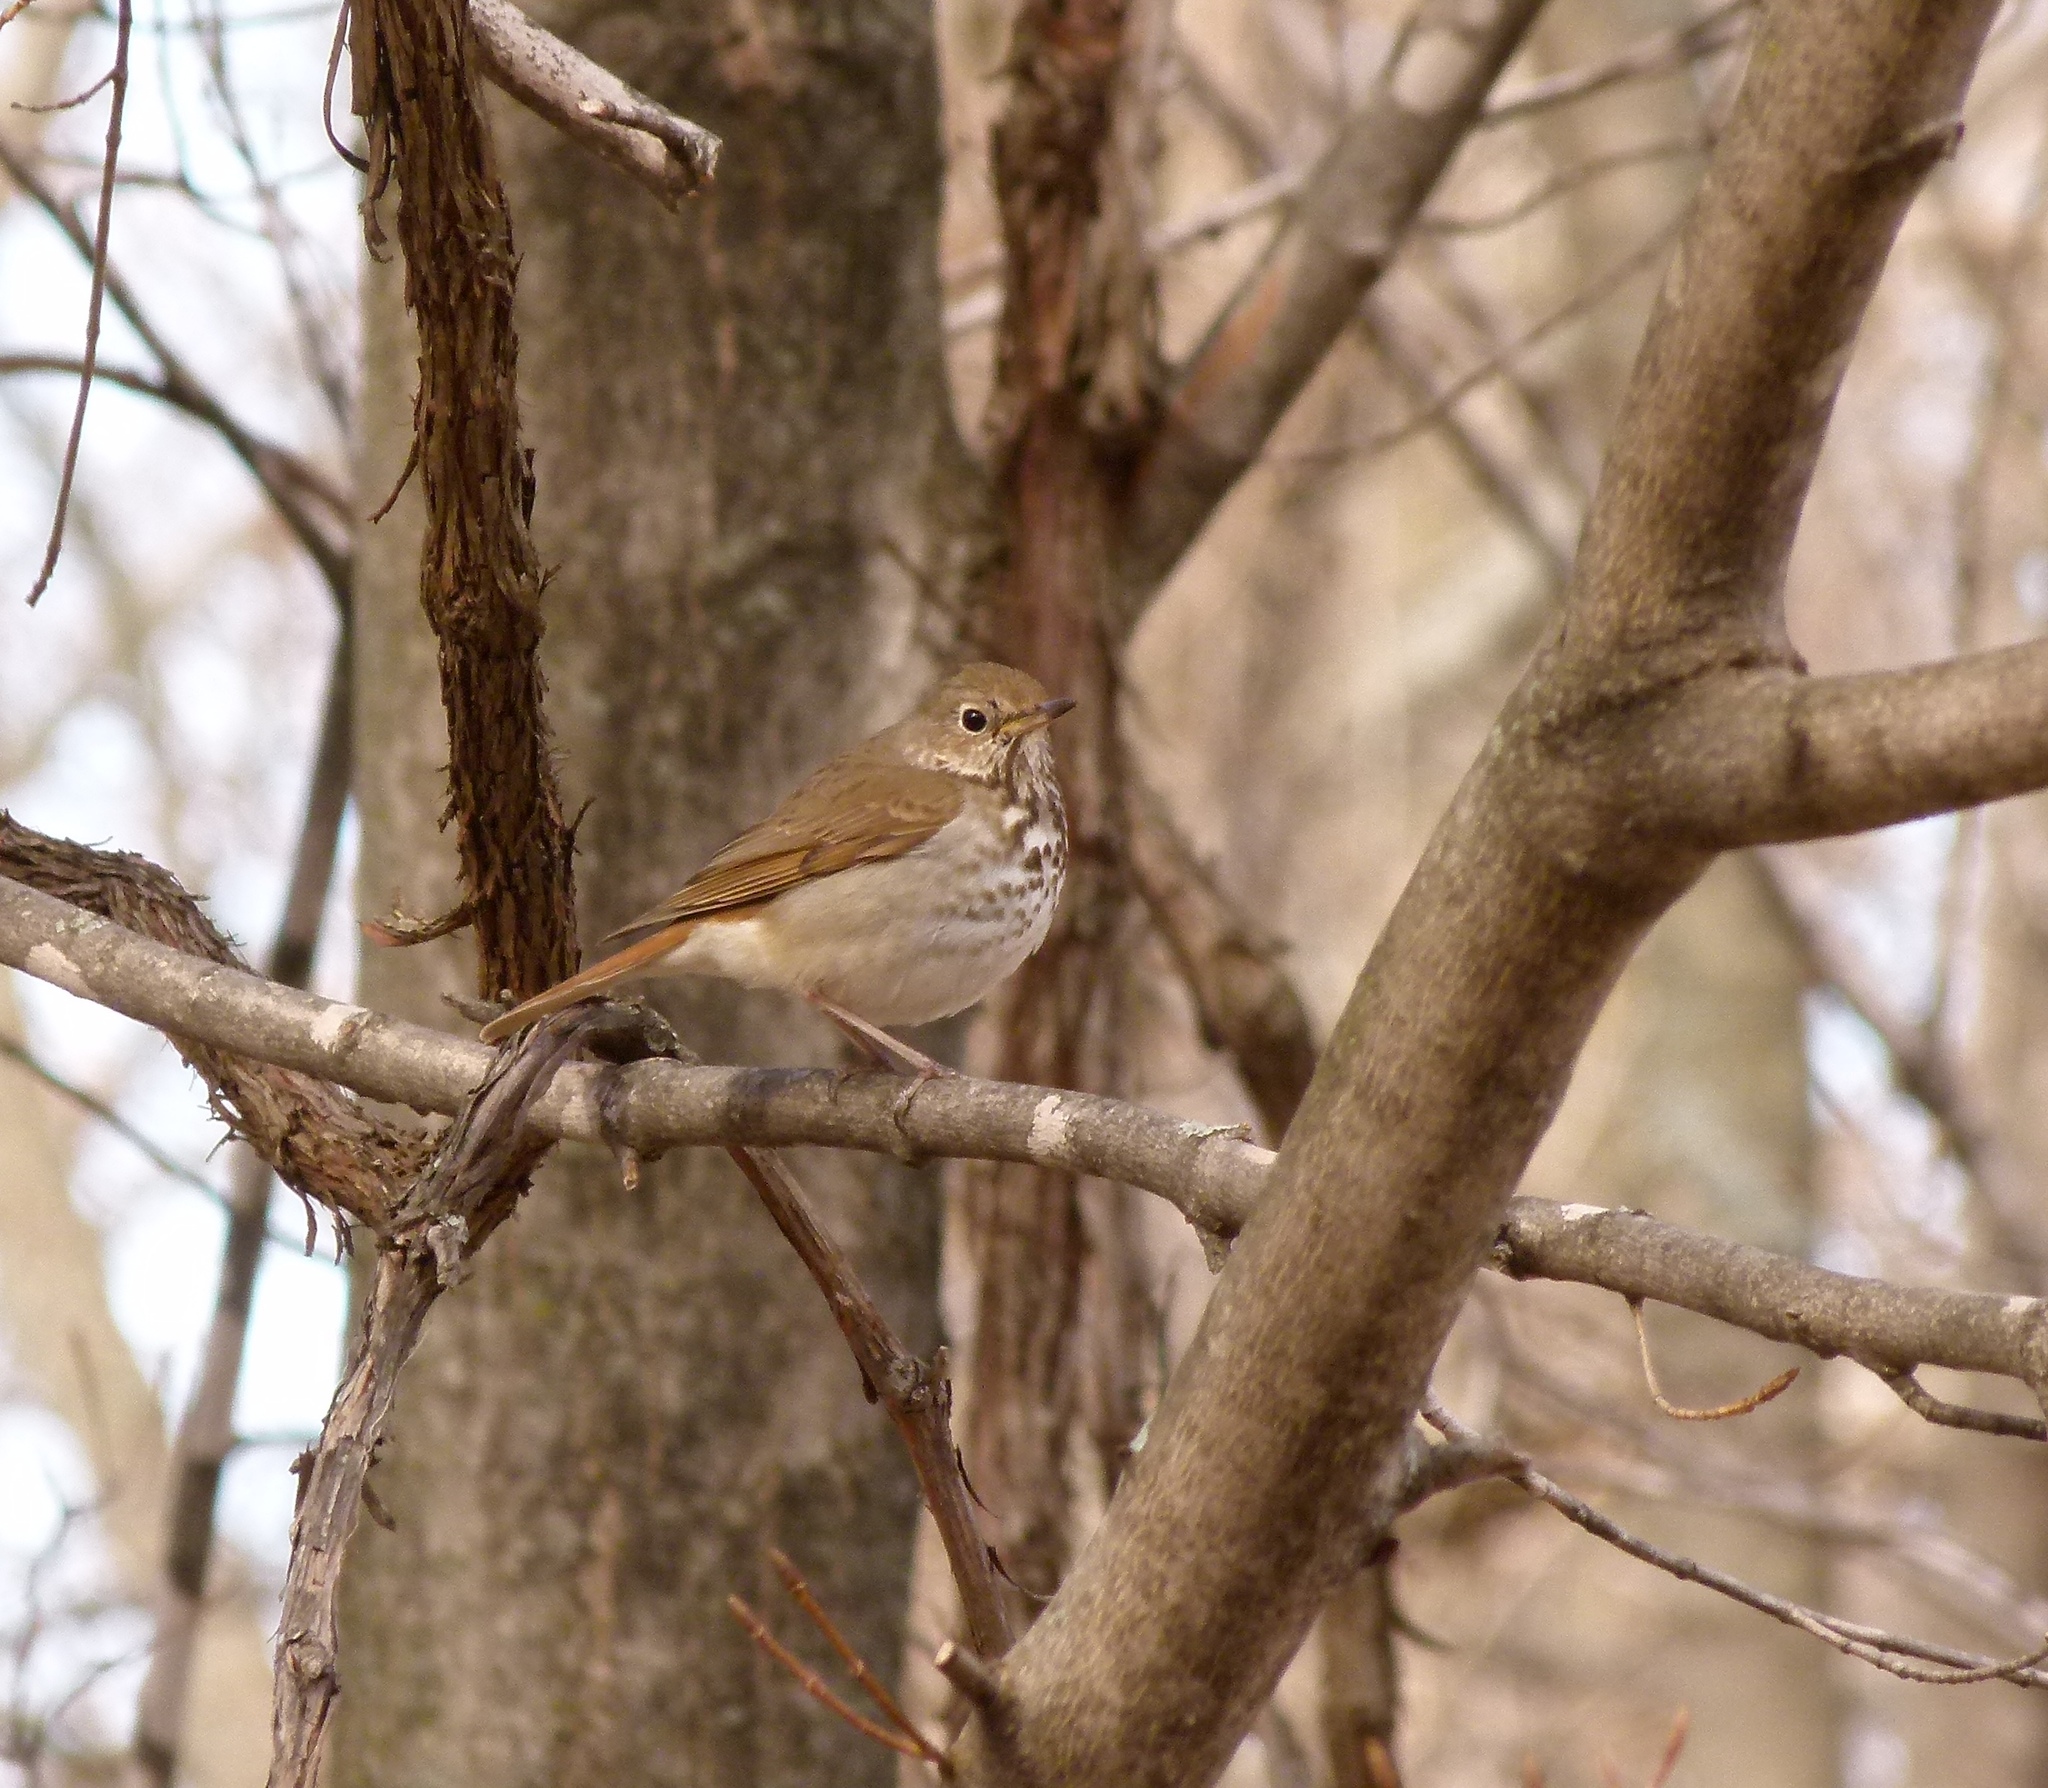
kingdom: Animalia
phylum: Chordata
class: Aves
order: Passeriformes
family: Turdidae
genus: Catharus
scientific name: Catharus guttatus
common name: Hermit thrush
